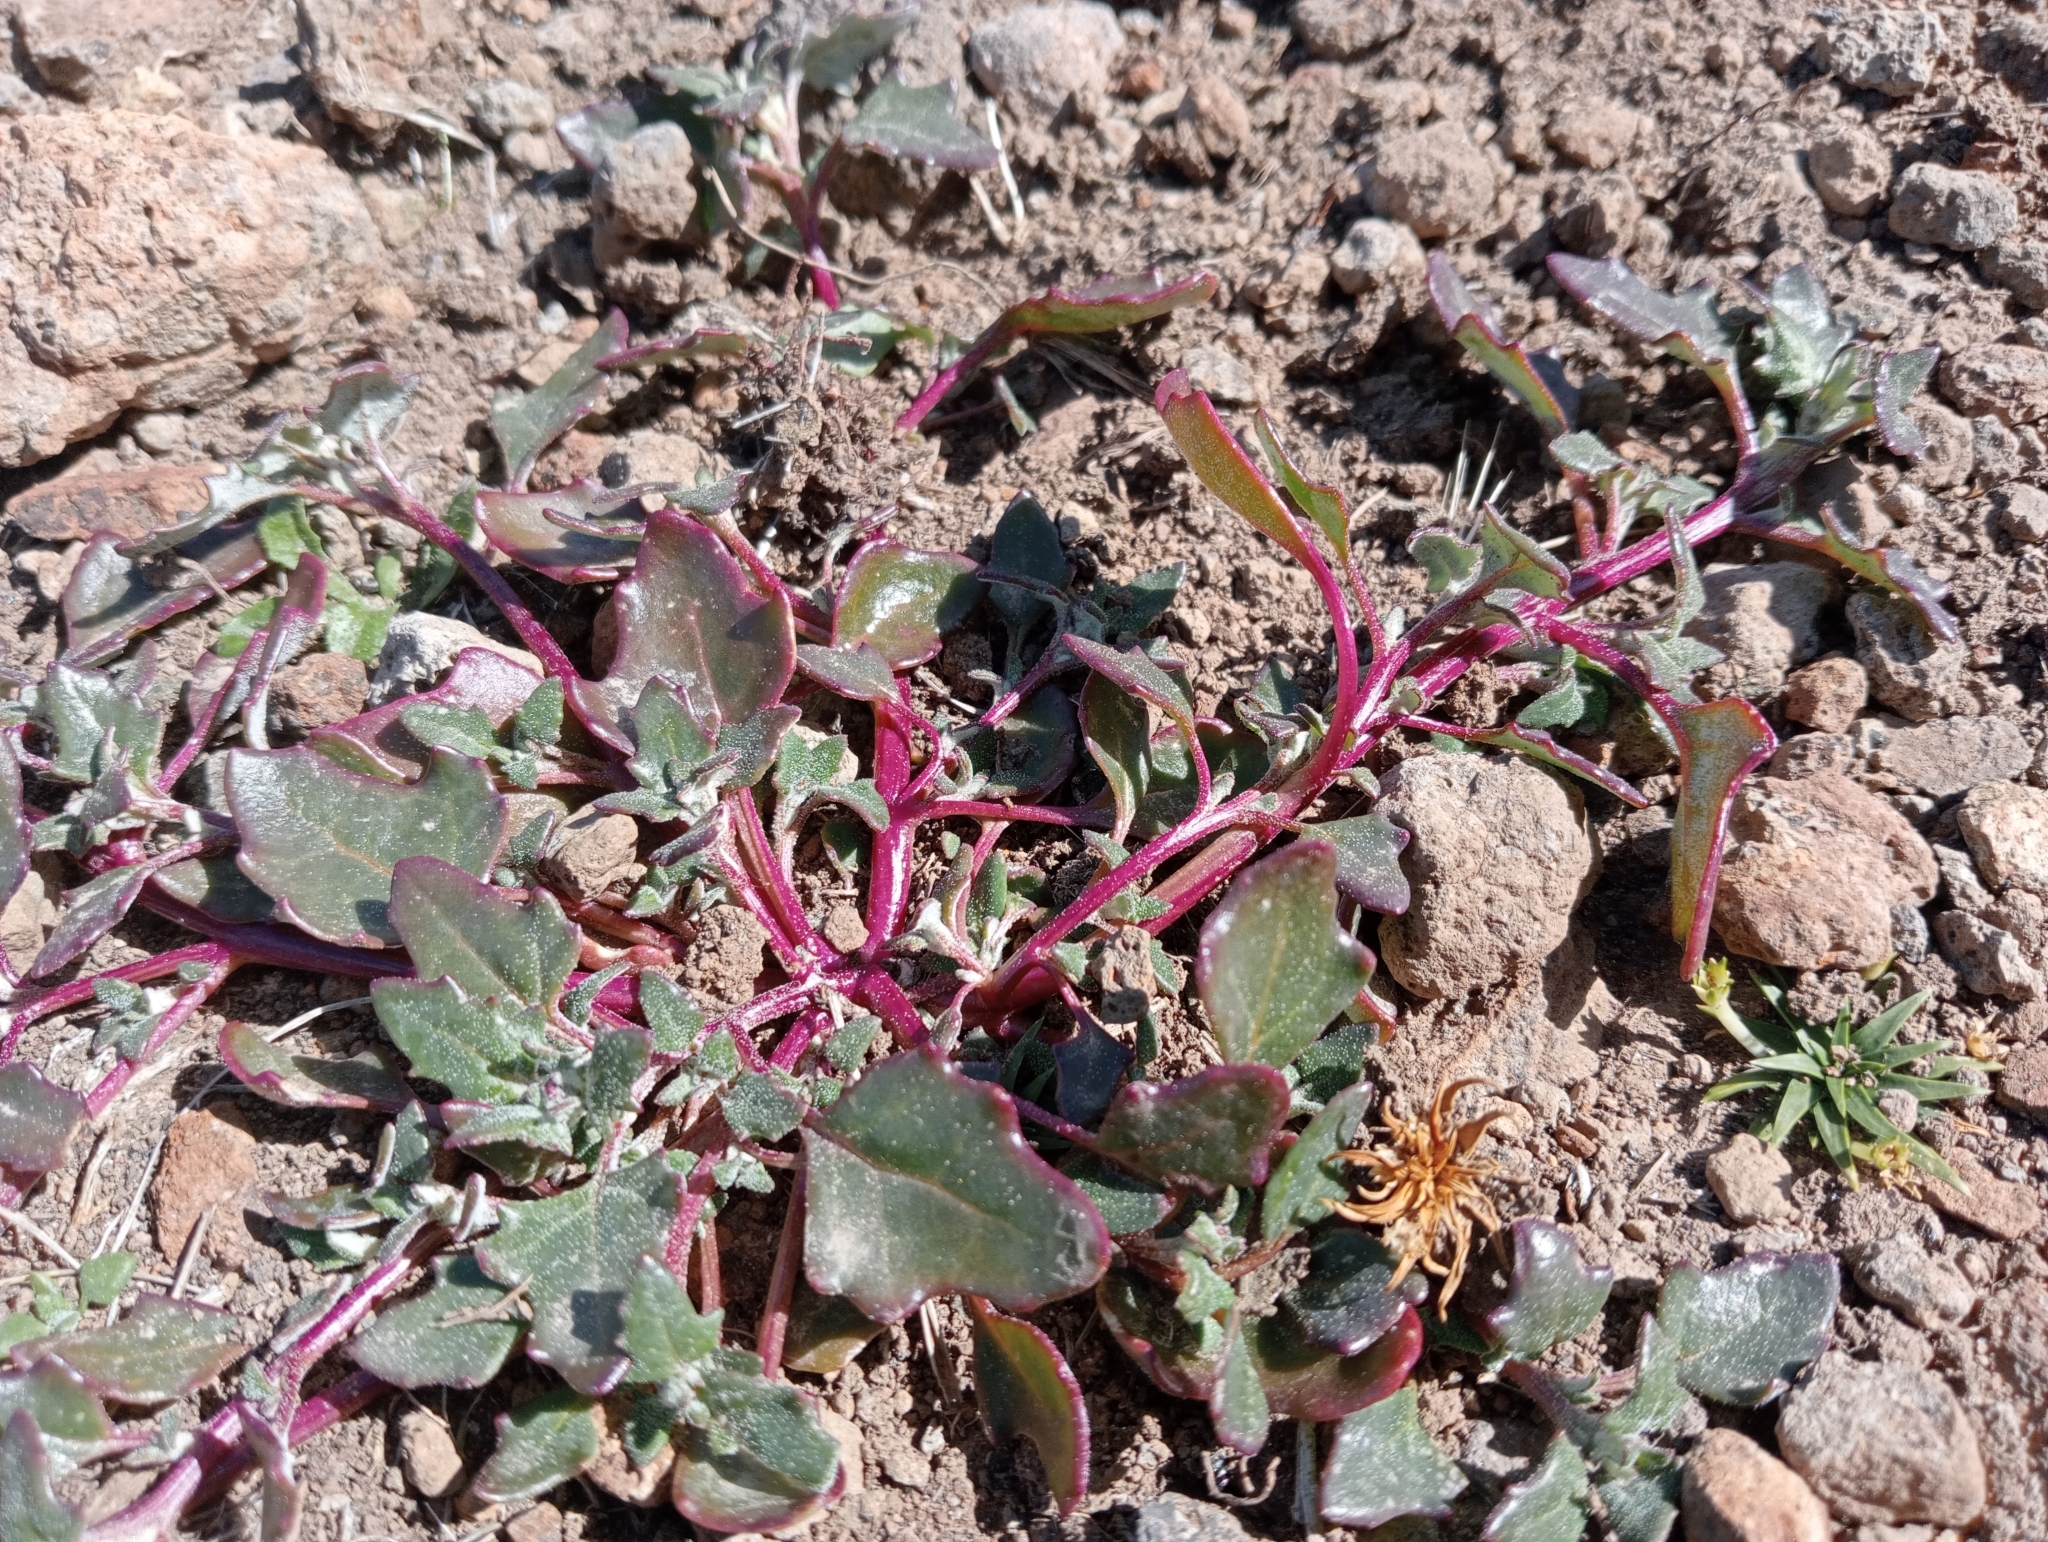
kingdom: Plantae
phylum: Tracheophyta
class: Magnoliopsida
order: Caryophyllales
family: Amaranthaceae
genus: Oxybasis
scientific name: Oxybasis ambigua
